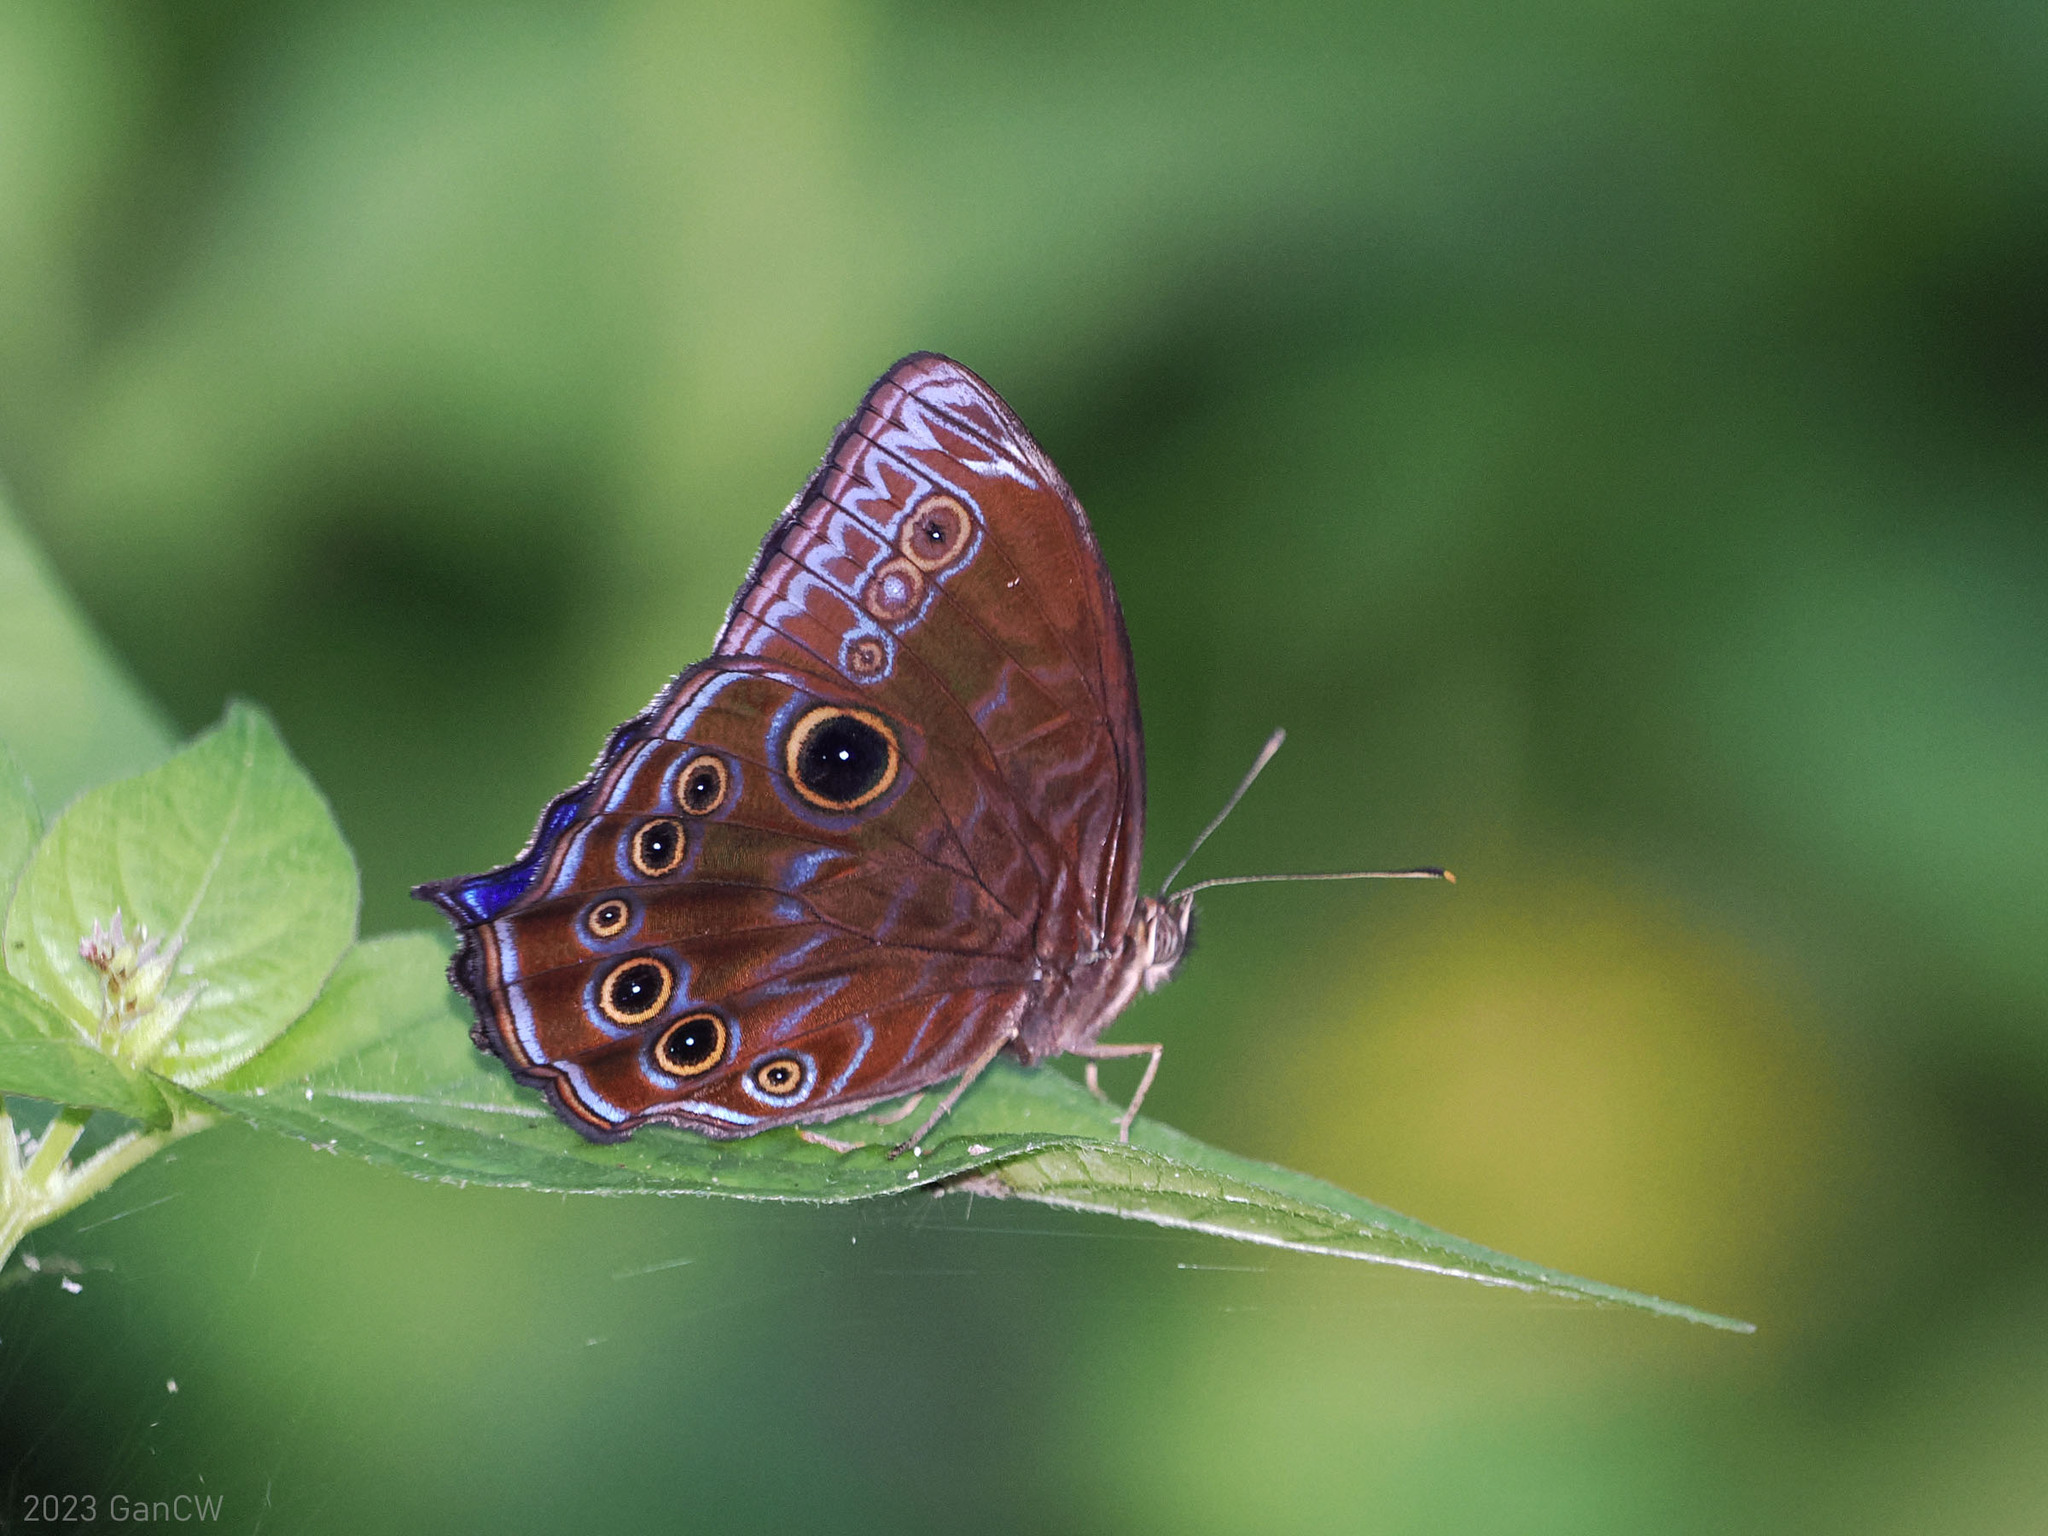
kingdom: Animalia
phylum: Arthropoda
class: Insecta
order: Lepidoptera
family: Nymphalidae
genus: Ptychandra
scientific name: Ptychandra lorquinii
